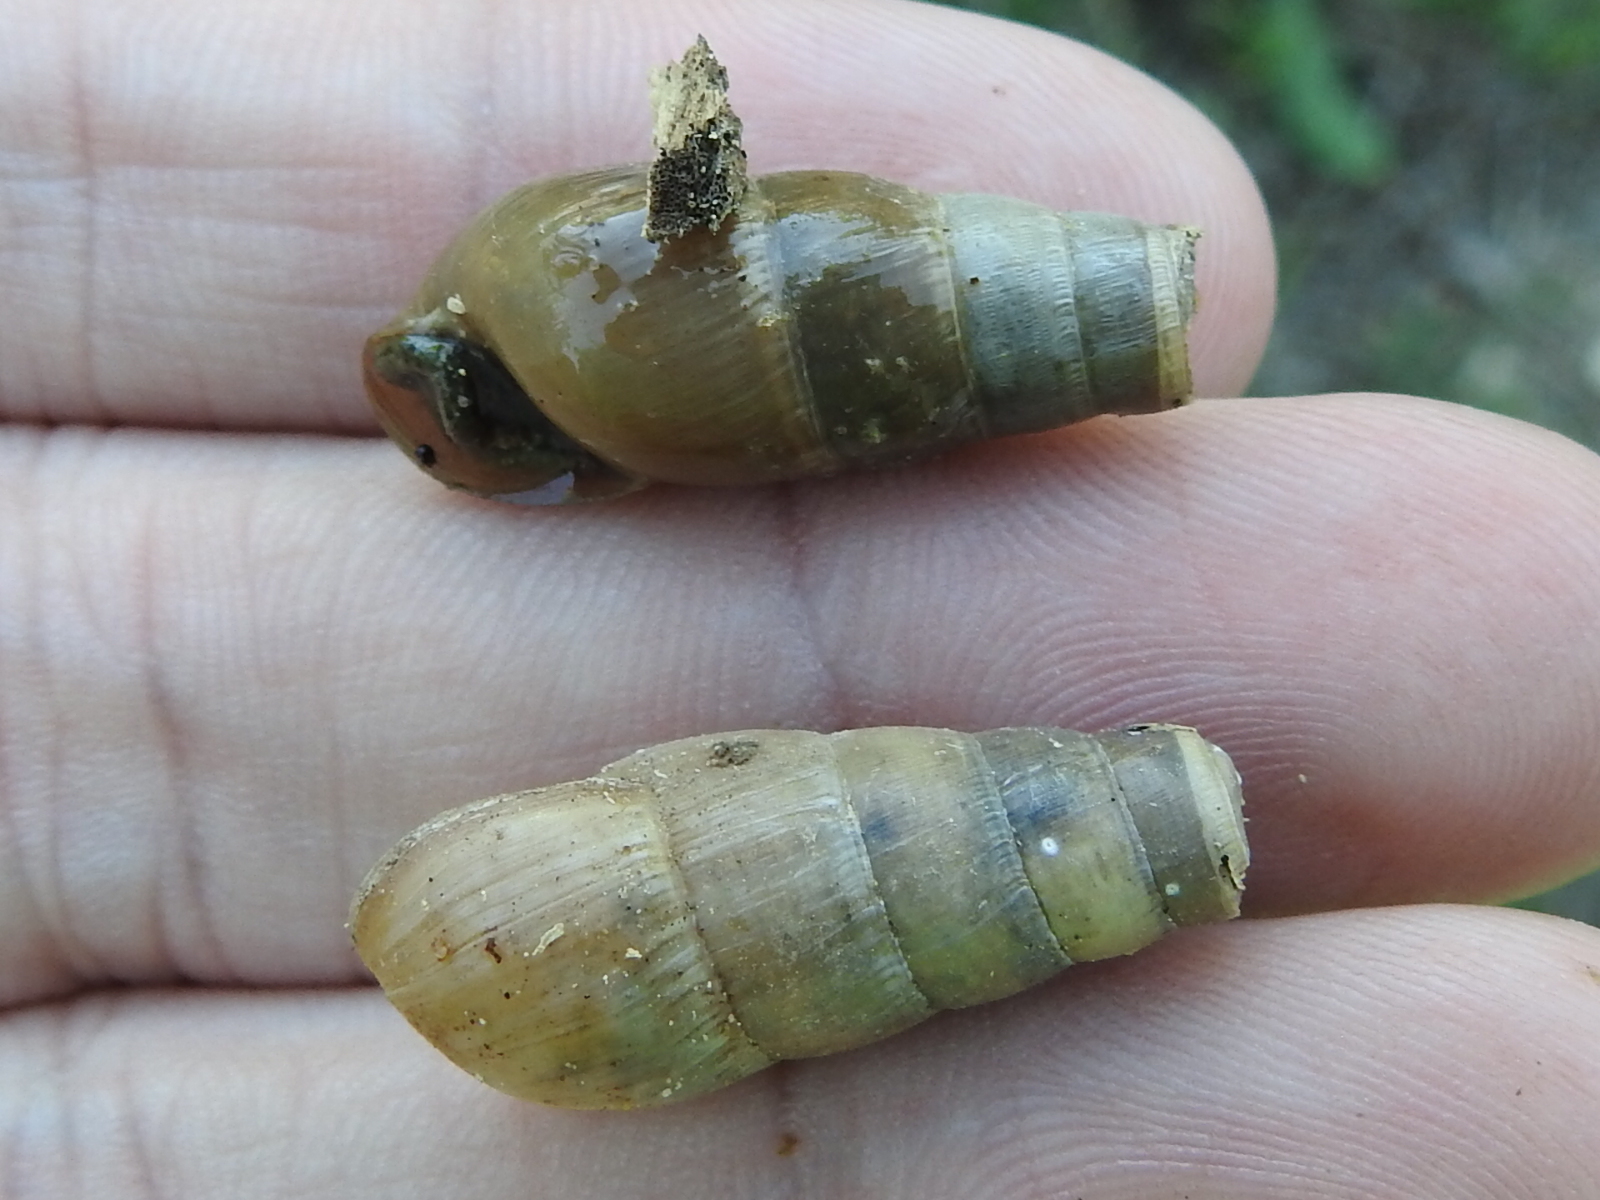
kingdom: Animalia
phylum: Mollusca
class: Gastropoda
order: Stylommatophora
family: Achatinidae
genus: Rumina
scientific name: Rumina decollata
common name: Decollate snail
